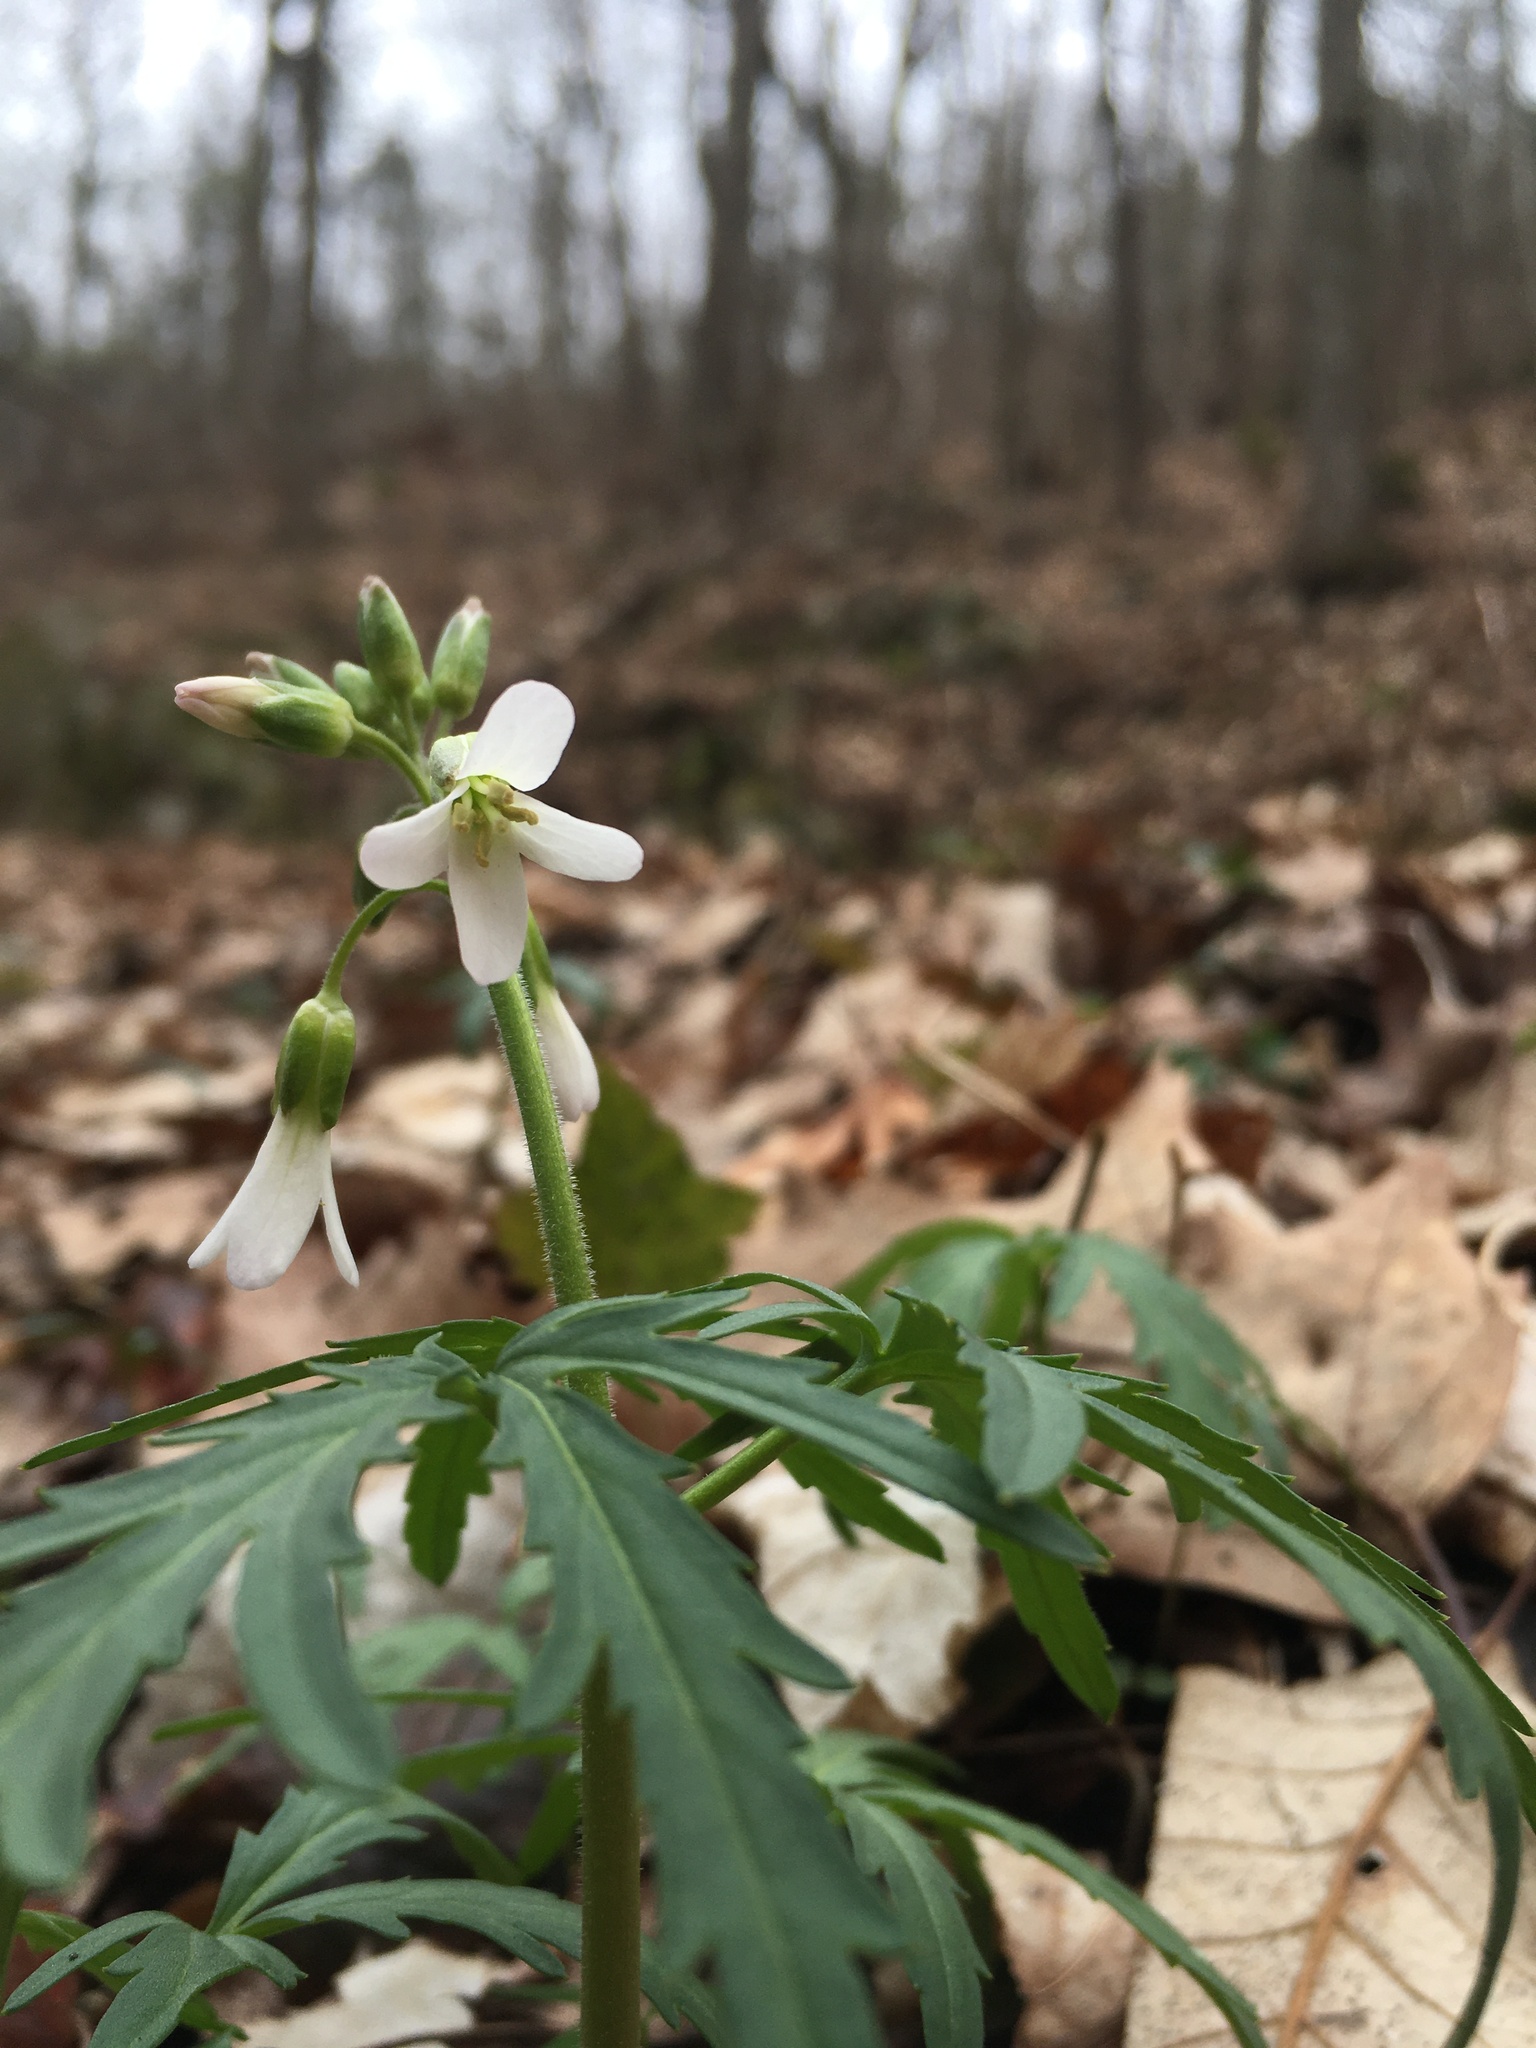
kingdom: Plantae
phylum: Tracheophyta
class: Magnoliopsida
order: Brassicales
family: Brassicaceae
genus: Cardamine
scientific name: Cardamine concatenata
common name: Cut-leaf toothcup
